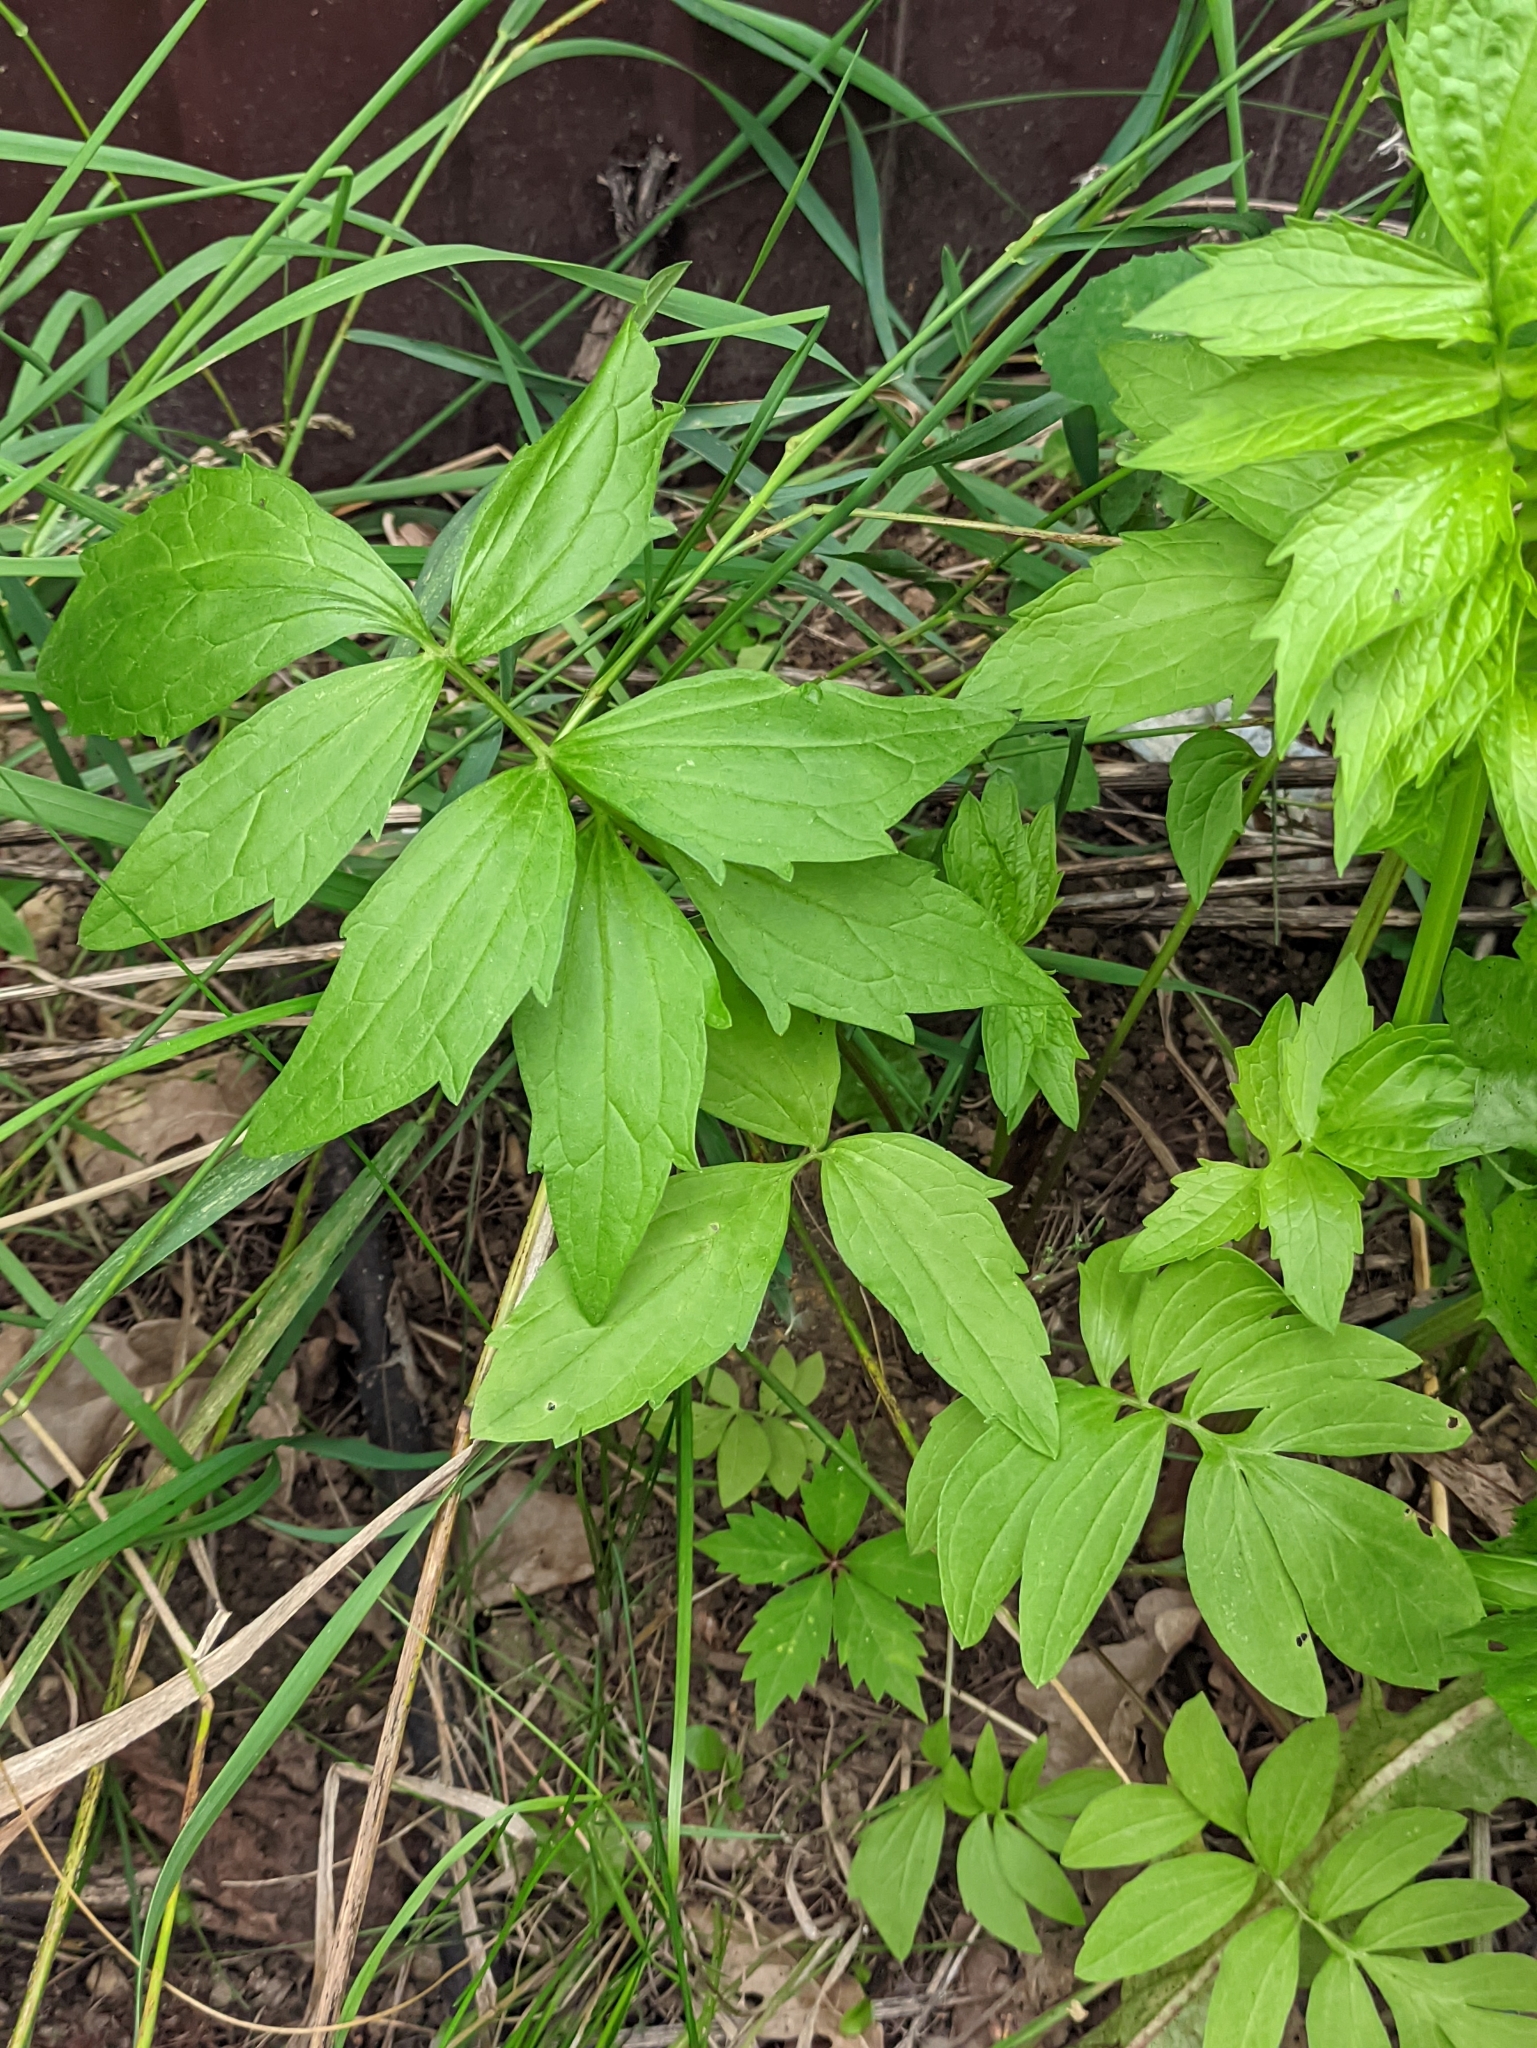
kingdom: Plantae
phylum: Tracheophyta
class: Magnoliopsida
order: Dipsacales
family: Caprifoliaceae
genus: Valeriana
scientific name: Valeriana officinalis
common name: Common valerian
